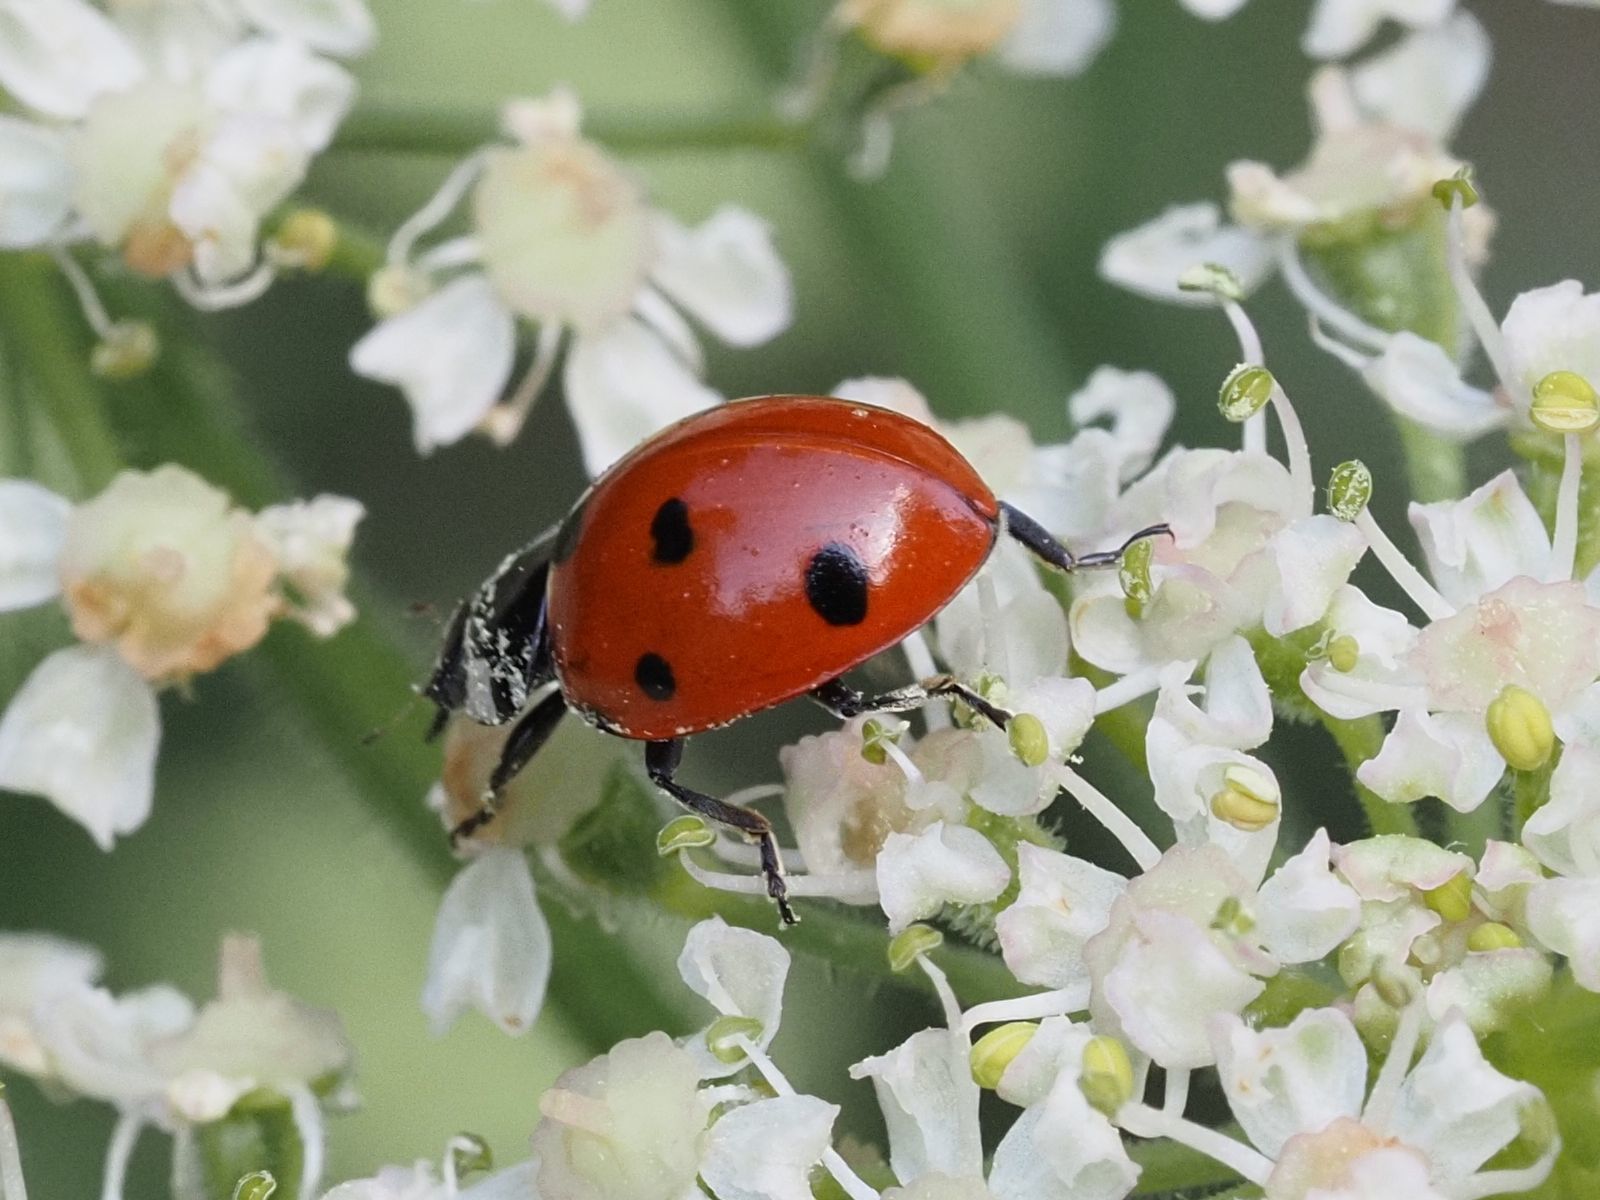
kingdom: Animalia
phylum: Arthropoda
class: Insecta
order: Coleoptera
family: Coccinellidae
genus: Coccinella
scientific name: Coccinella septempunctata
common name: Sevenspotted lady beetle
